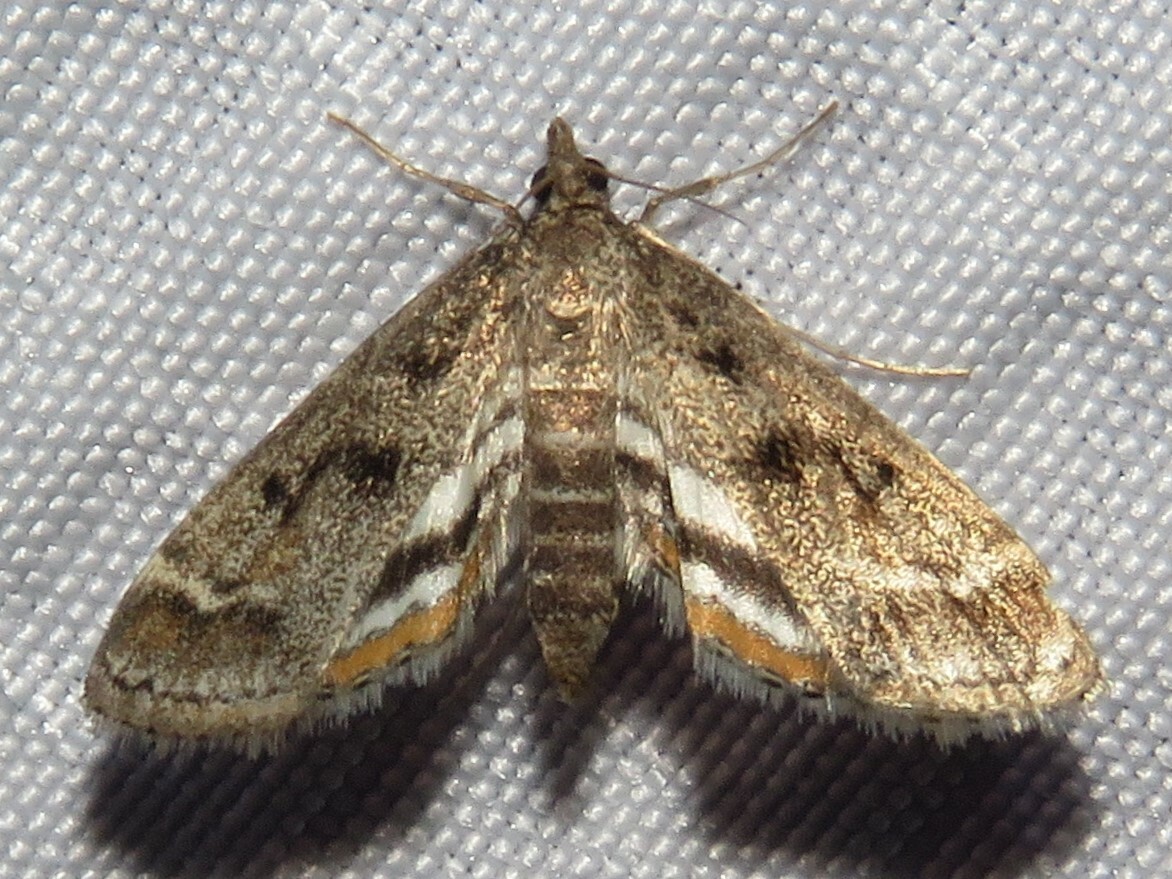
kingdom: Animalia
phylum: Arthropoda
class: Insecta
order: Lepidoptera
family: Crambidae
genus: Parapoynx
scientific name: Parapoynx obscuralis
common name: American china-mark
